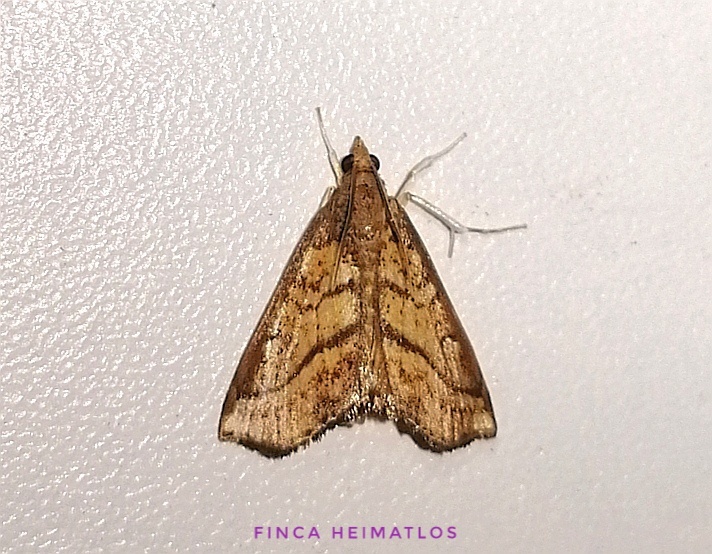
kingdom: Animalia
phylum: Arthropoda
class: Insecta
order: Lepidoptera
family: Crambidae
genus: Chilozela
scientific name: Chilozela trapeziana
